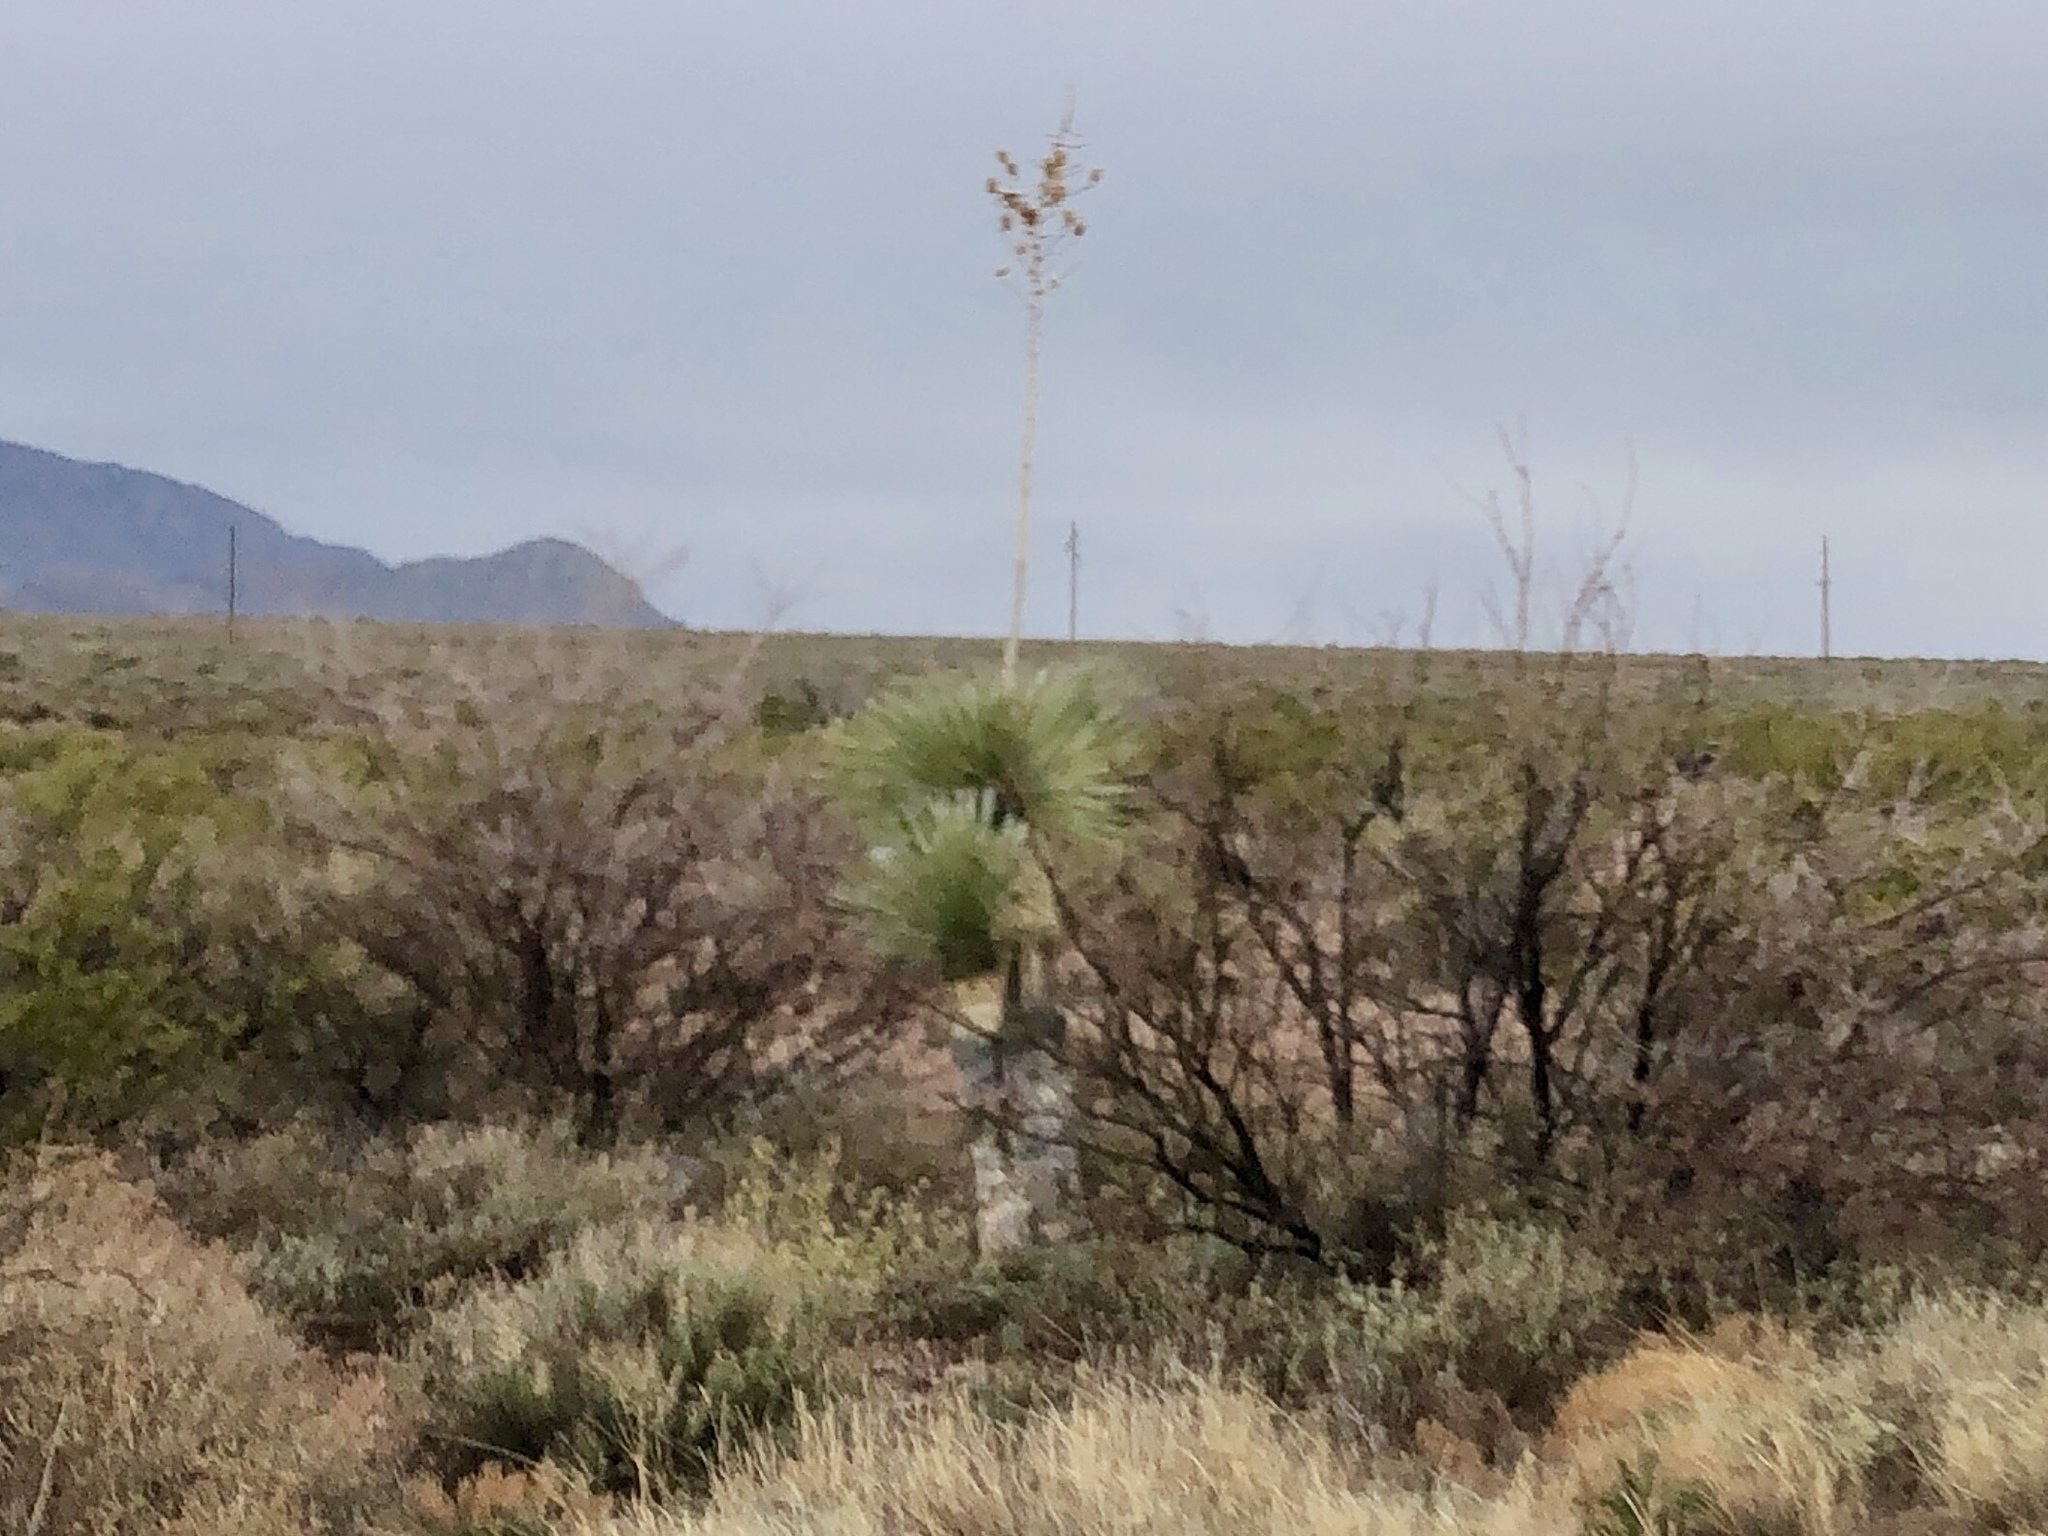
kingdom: Plantae
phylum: Tracheophyta
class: Liliopsida
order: Asparagales
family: Asparagaceae
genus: Yucca
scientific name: Yucca elata
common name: Palmella
